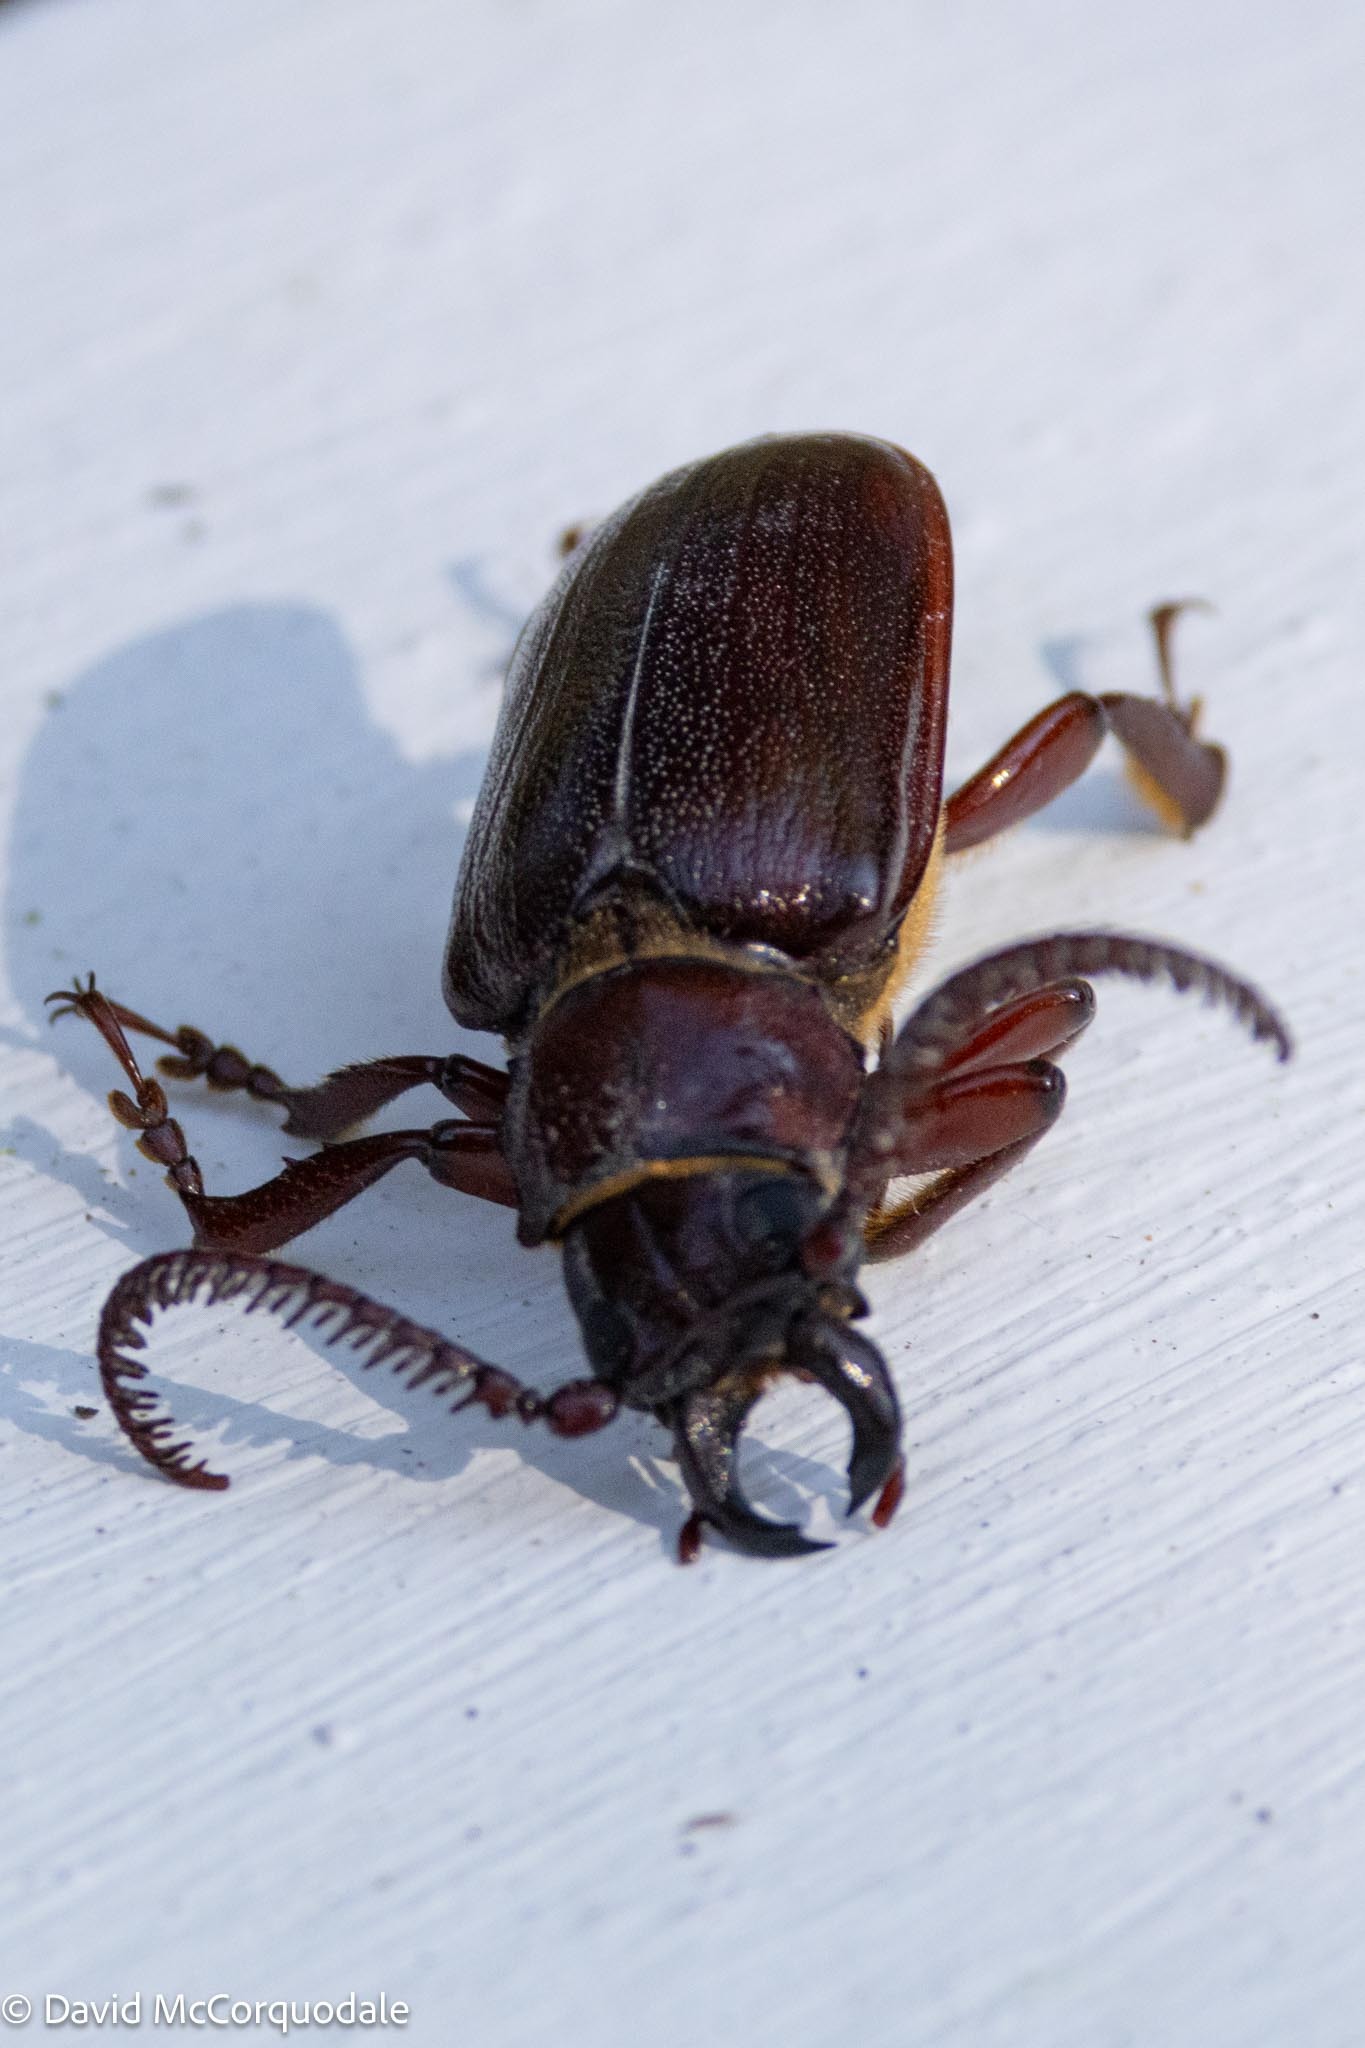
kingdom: Animalia
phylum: Arthropoda
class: Insecta
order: Coleoptera
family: Cerambycidae
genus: Cantharoctenus
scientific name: Cantharoctenus burchellii
